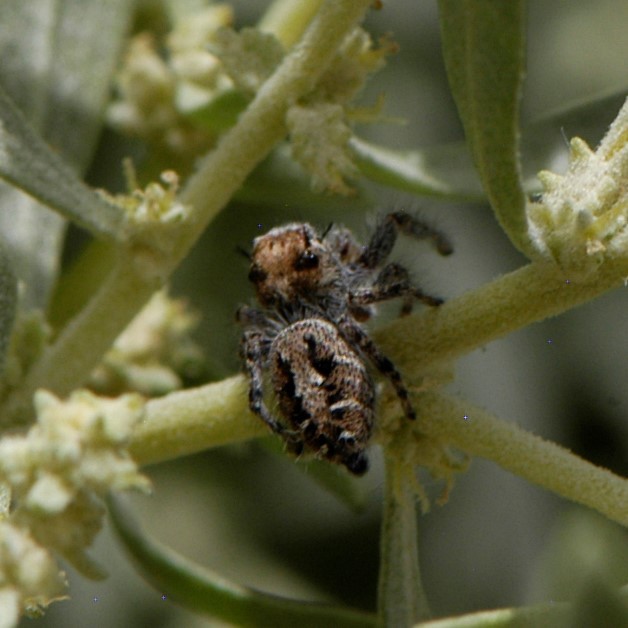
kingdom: Animalia
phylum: Arthropoda
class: Arachnida
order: Araneae
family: Salticidae
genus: Phidippus
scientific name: Phidippus comatus
